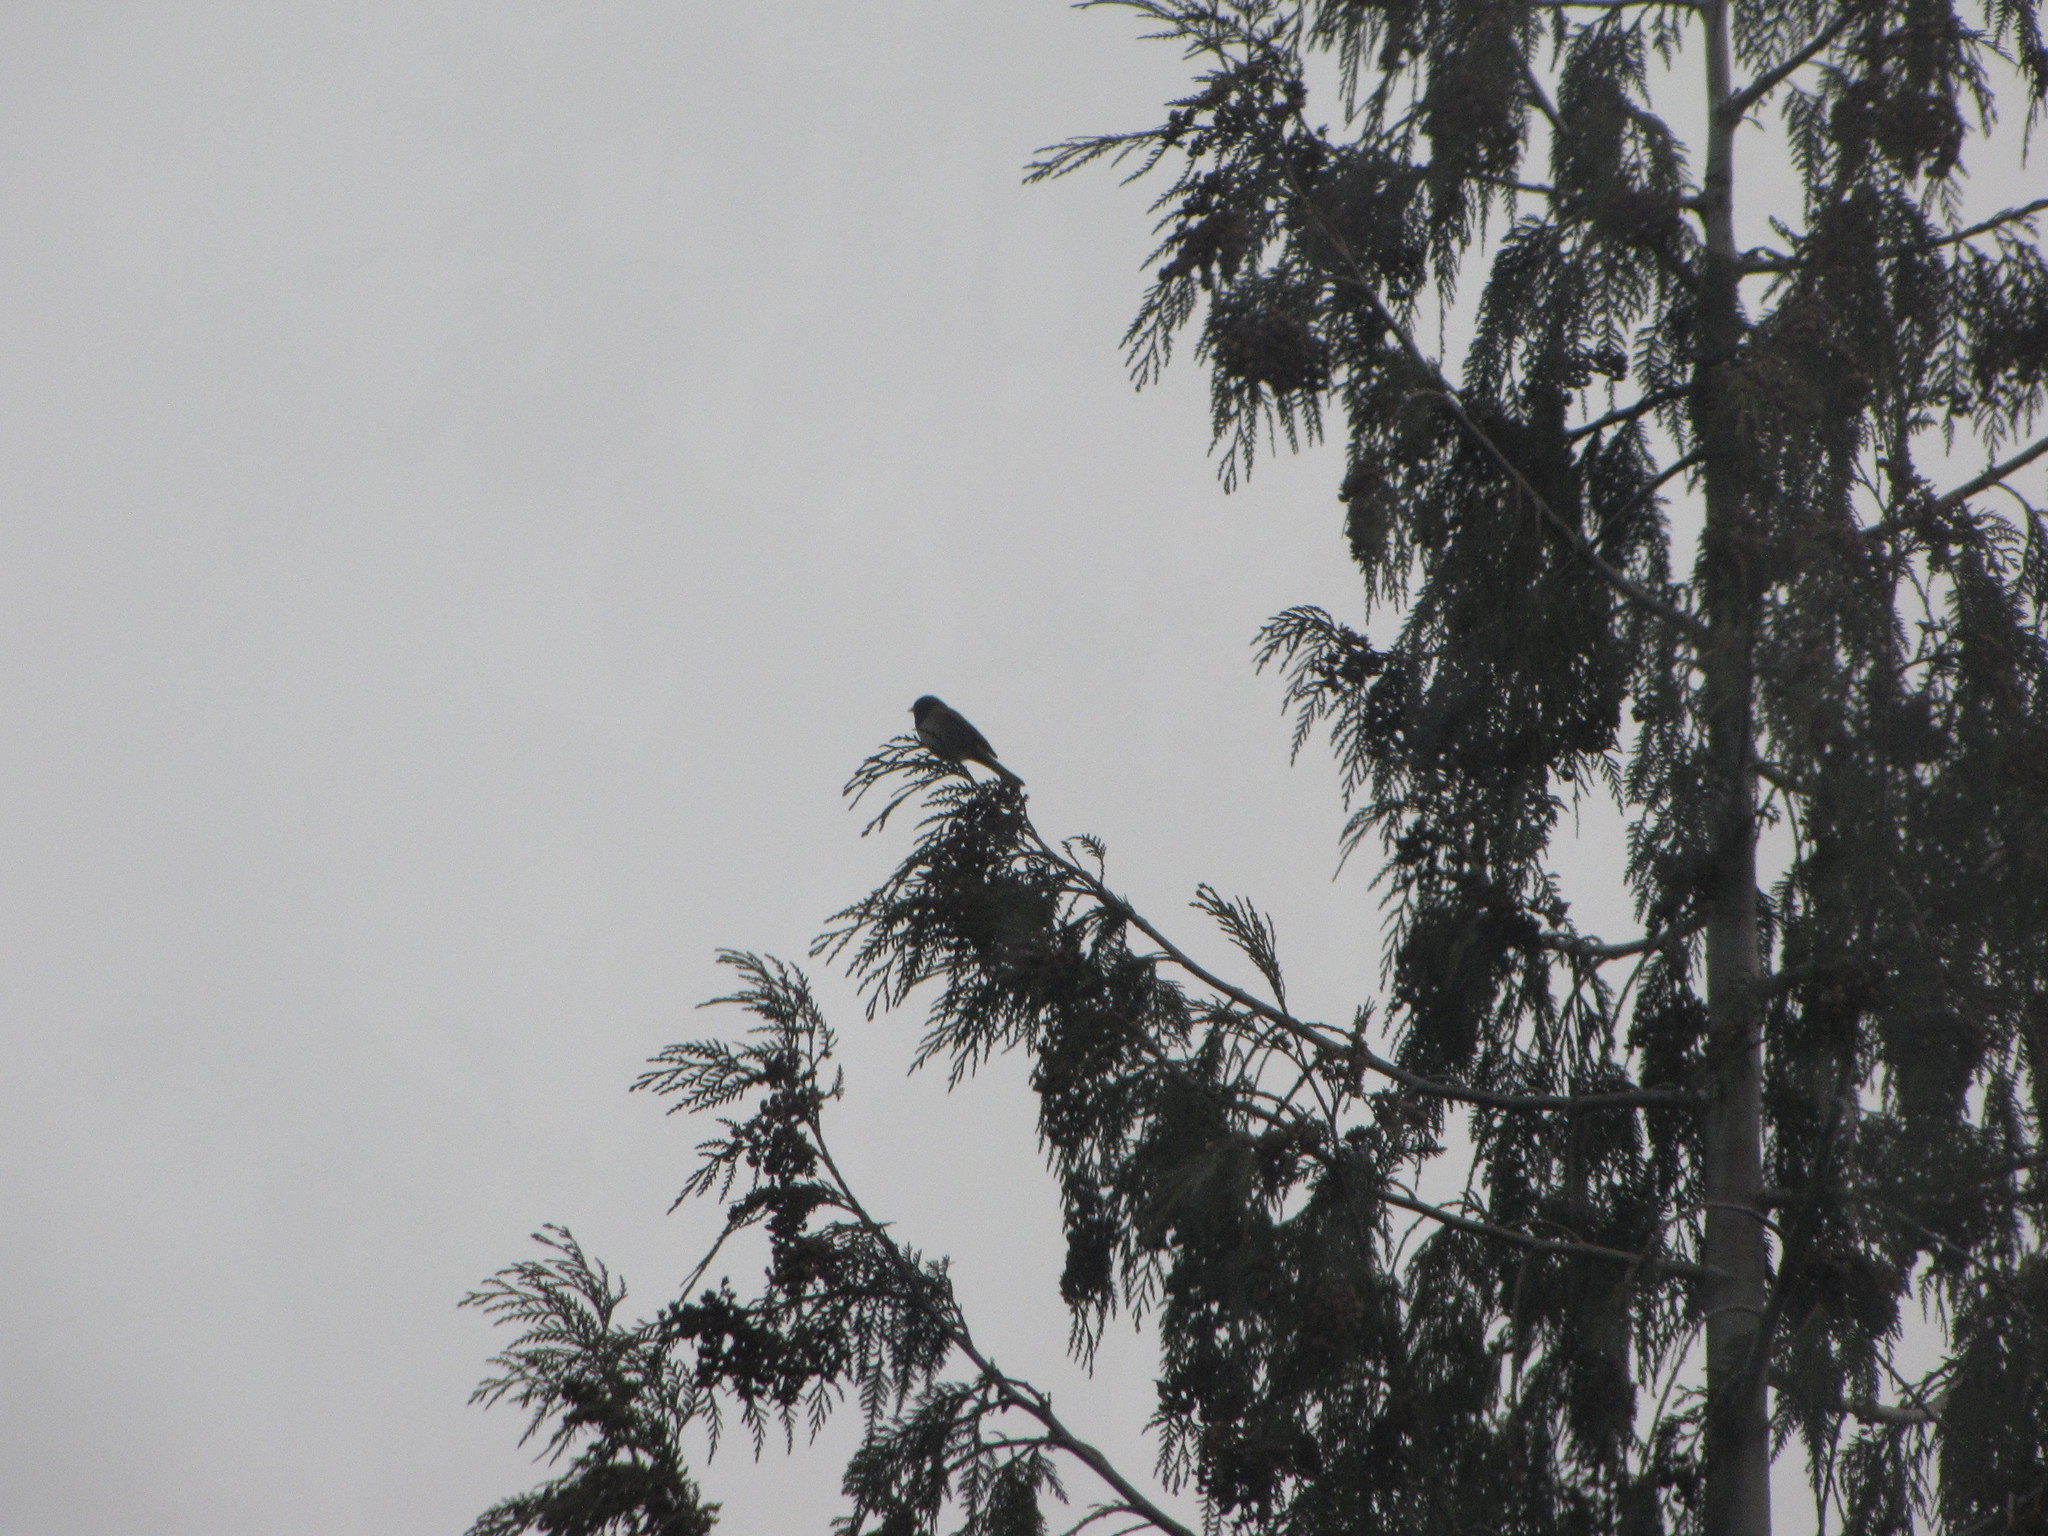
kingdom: Animalia
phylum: Chordata
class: Aves
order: Passeriformes
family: Passerellidae
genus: Junco
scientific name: Junco hyemalis
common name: Dark-eyed junco
